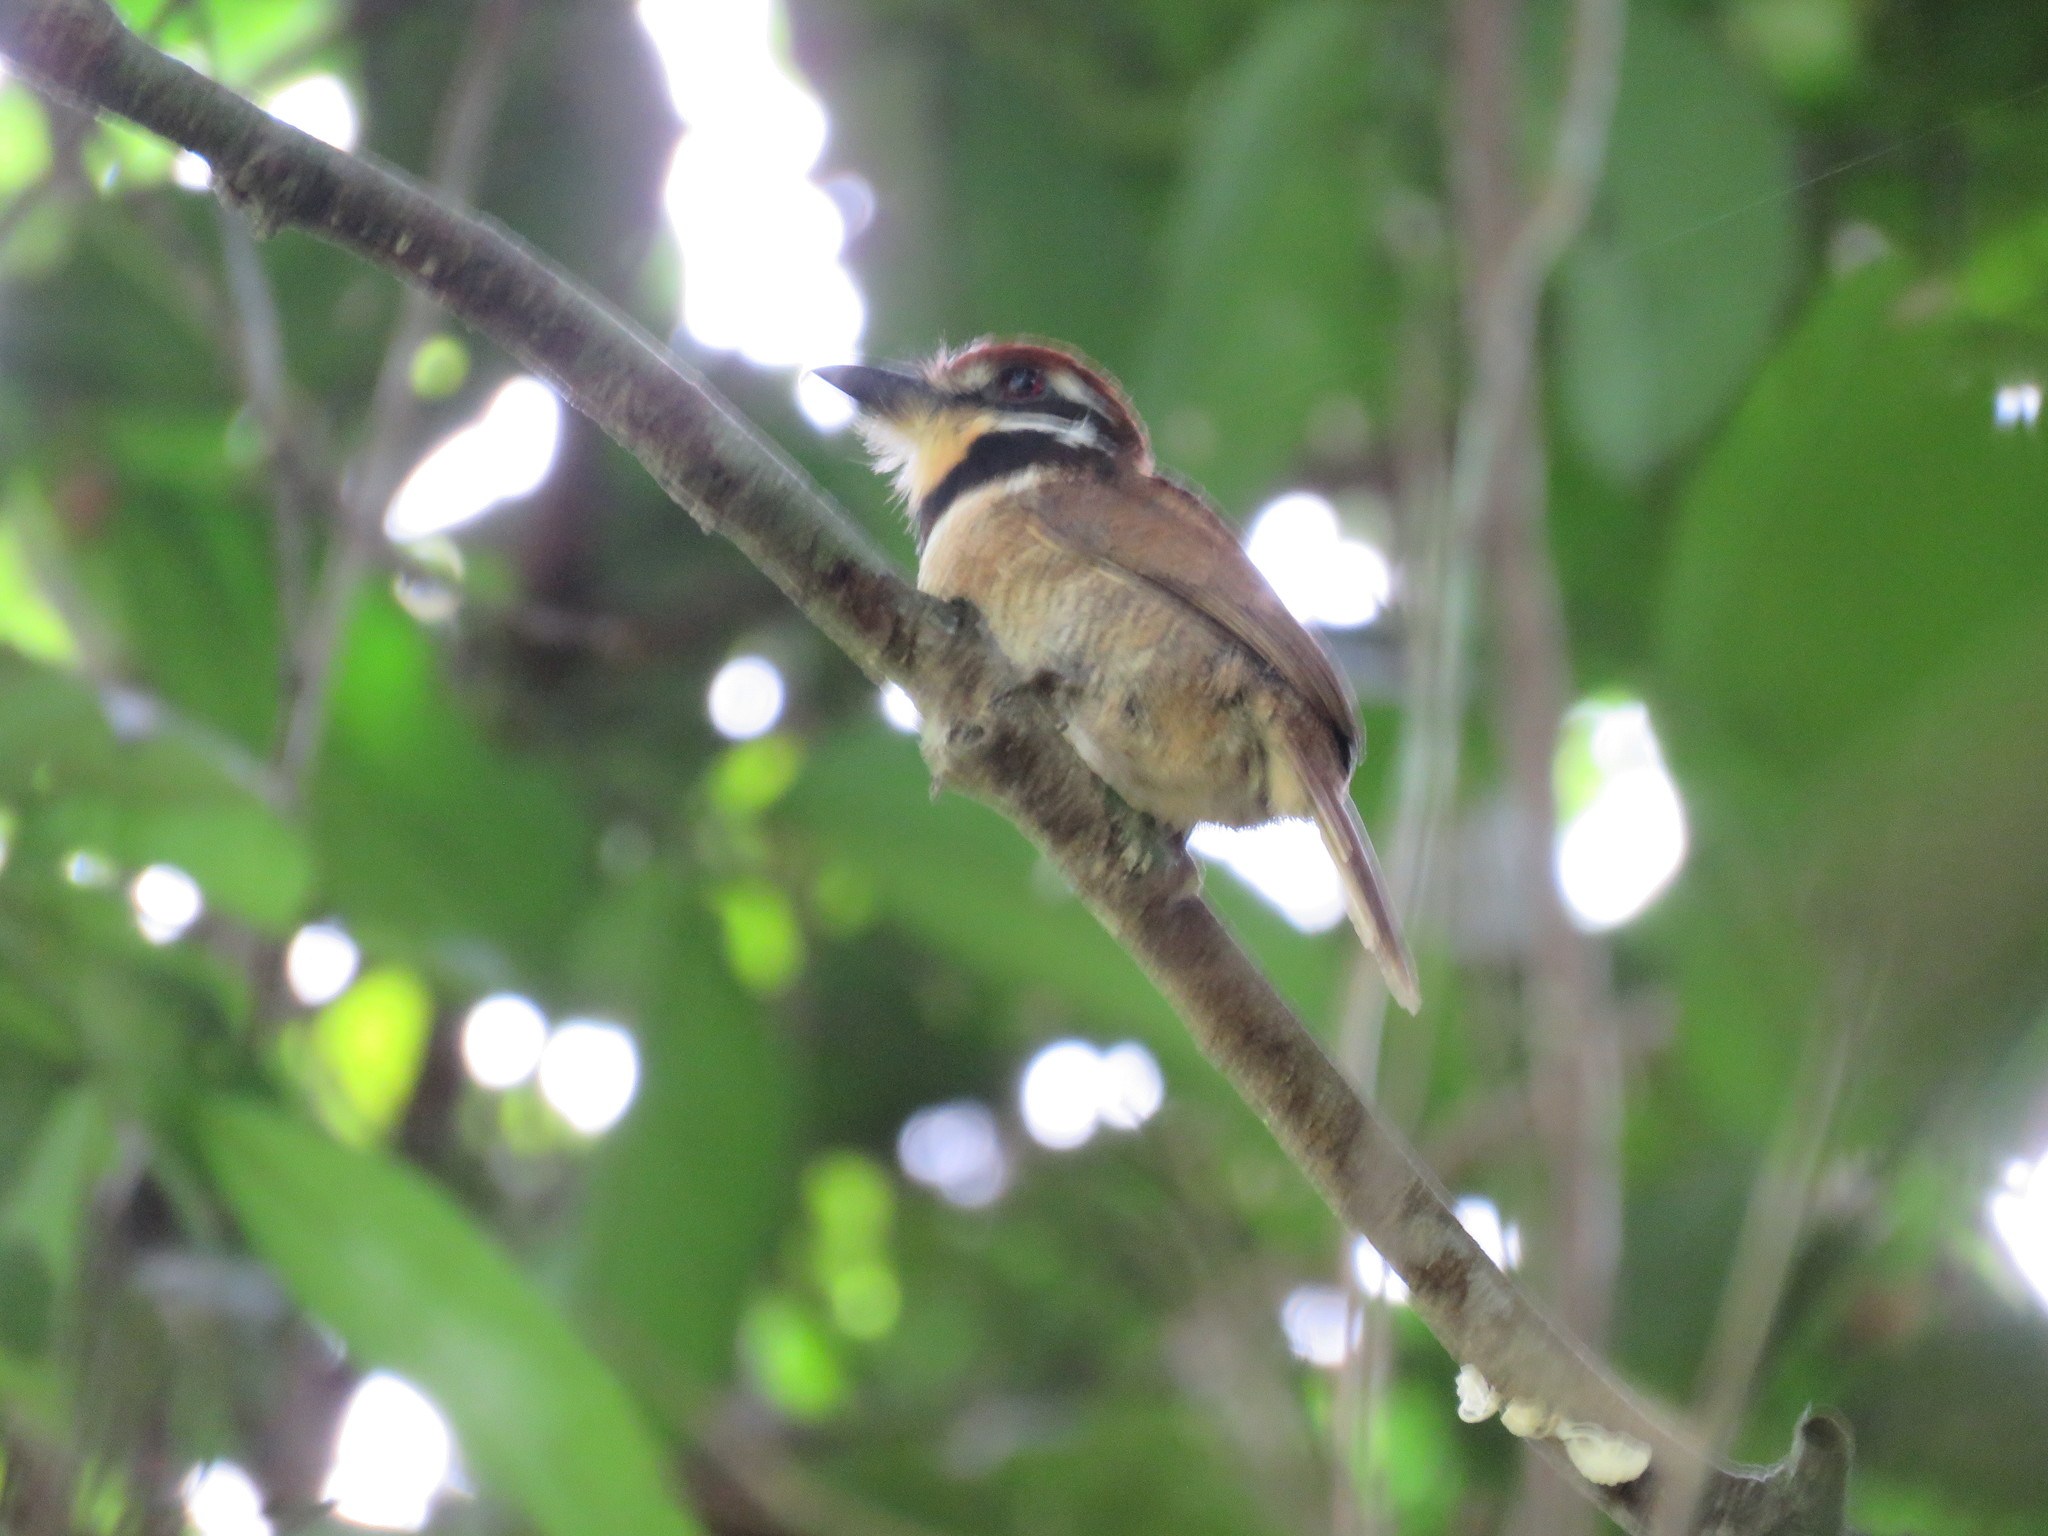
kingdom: Animalia
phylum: Chordata
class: Aves
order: Piciformes
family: Bucconidae
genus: Bucco
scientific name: Bucco macrodactylus
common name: Chestnut-capped puffbird
